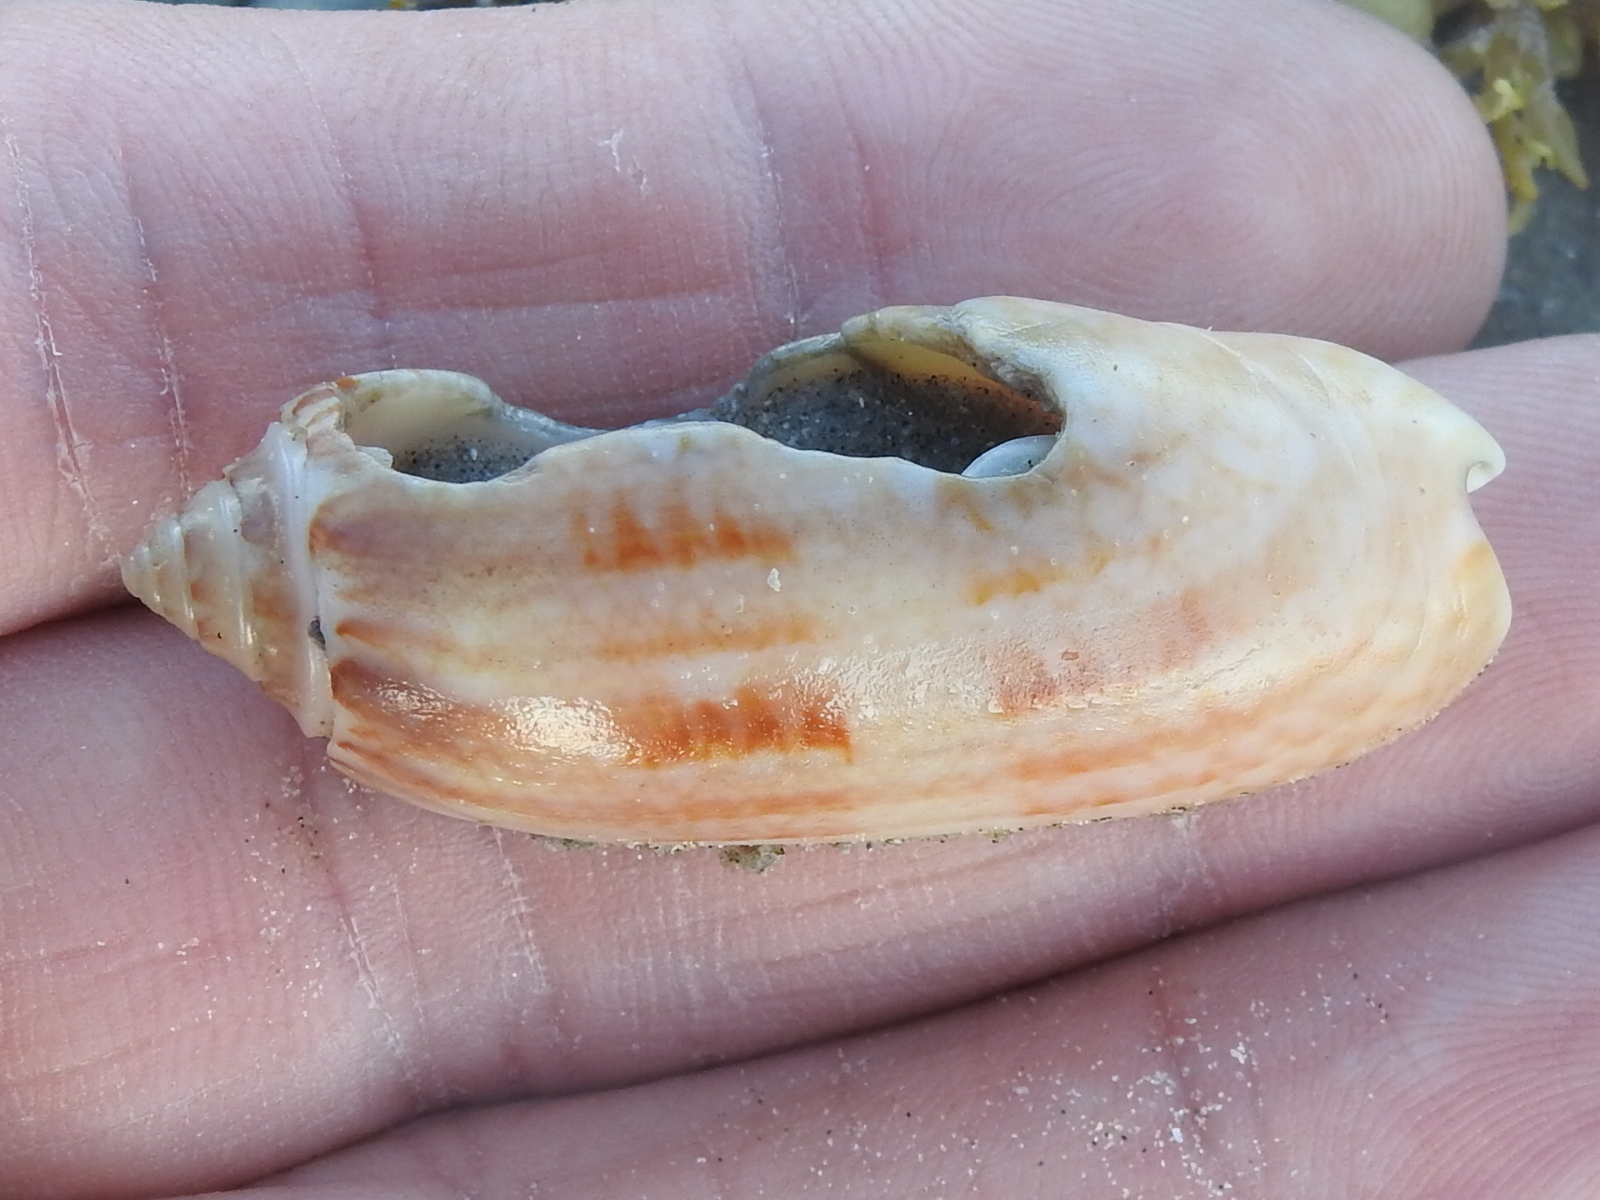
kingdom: Animalia
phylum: Mollusca
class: Gastropoda
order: Neogastropoda
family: Olividae
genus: Oliva
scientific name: Oliva sayana
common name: Lettered olive
